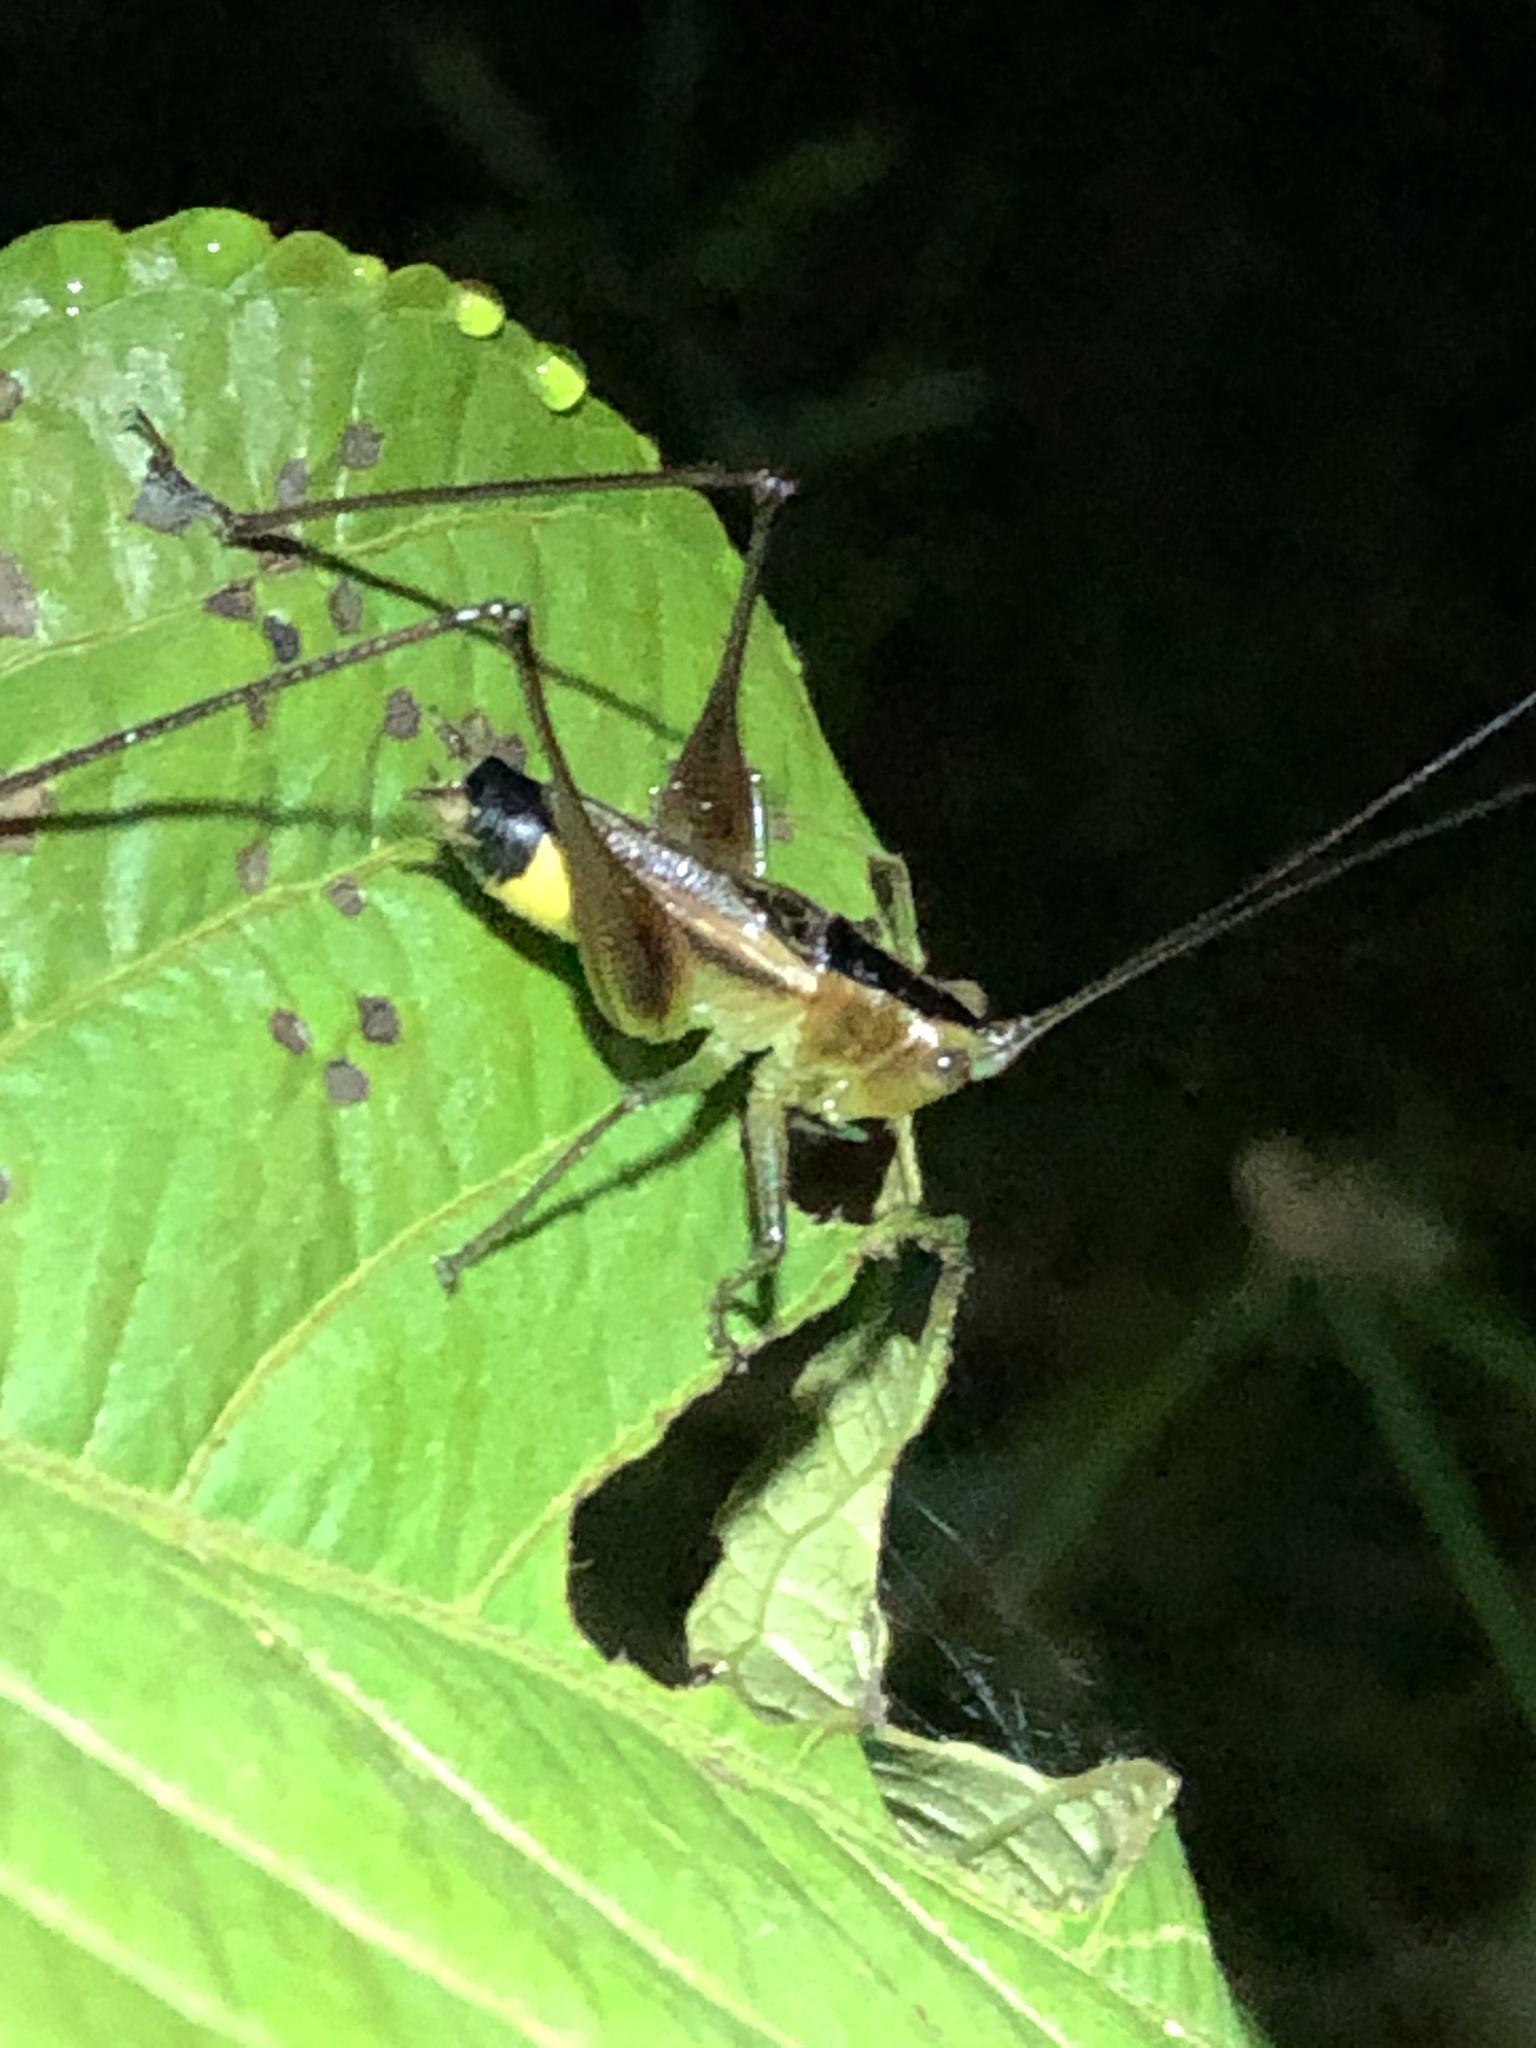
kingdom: Animalia
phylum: Arthropoda
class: Insecta
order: Orthoptera
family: Tettigoniidae
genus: Conocephalus
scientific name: Conocephalus versicolor
